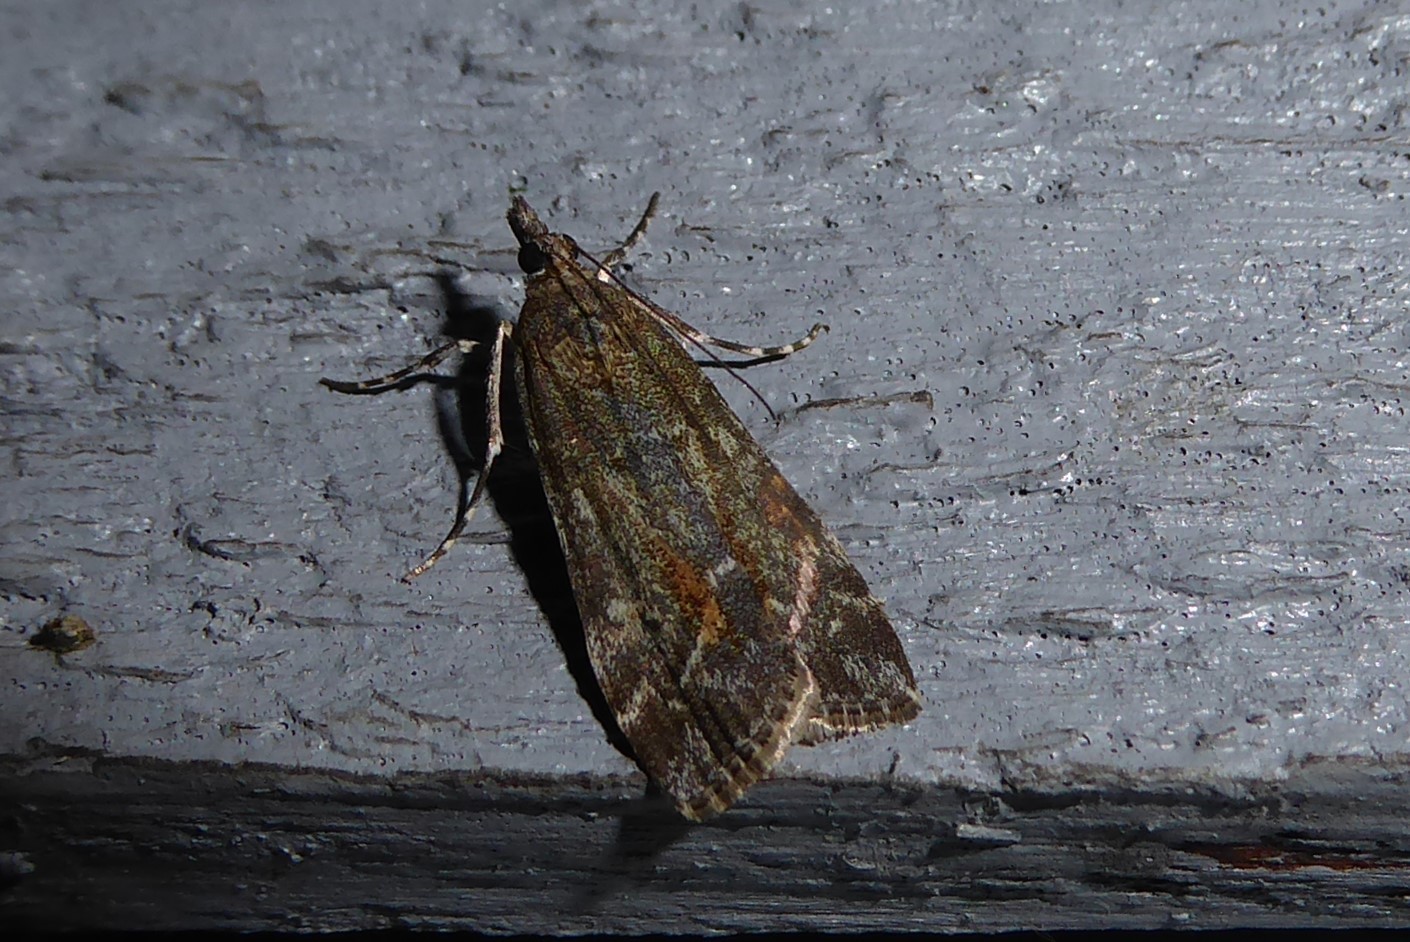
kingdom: Animalia
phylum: Arthropoda
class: Insecta
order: Lepidoptera
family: Crambidae
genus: Eudonia
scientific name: Eudonia submarginalis
